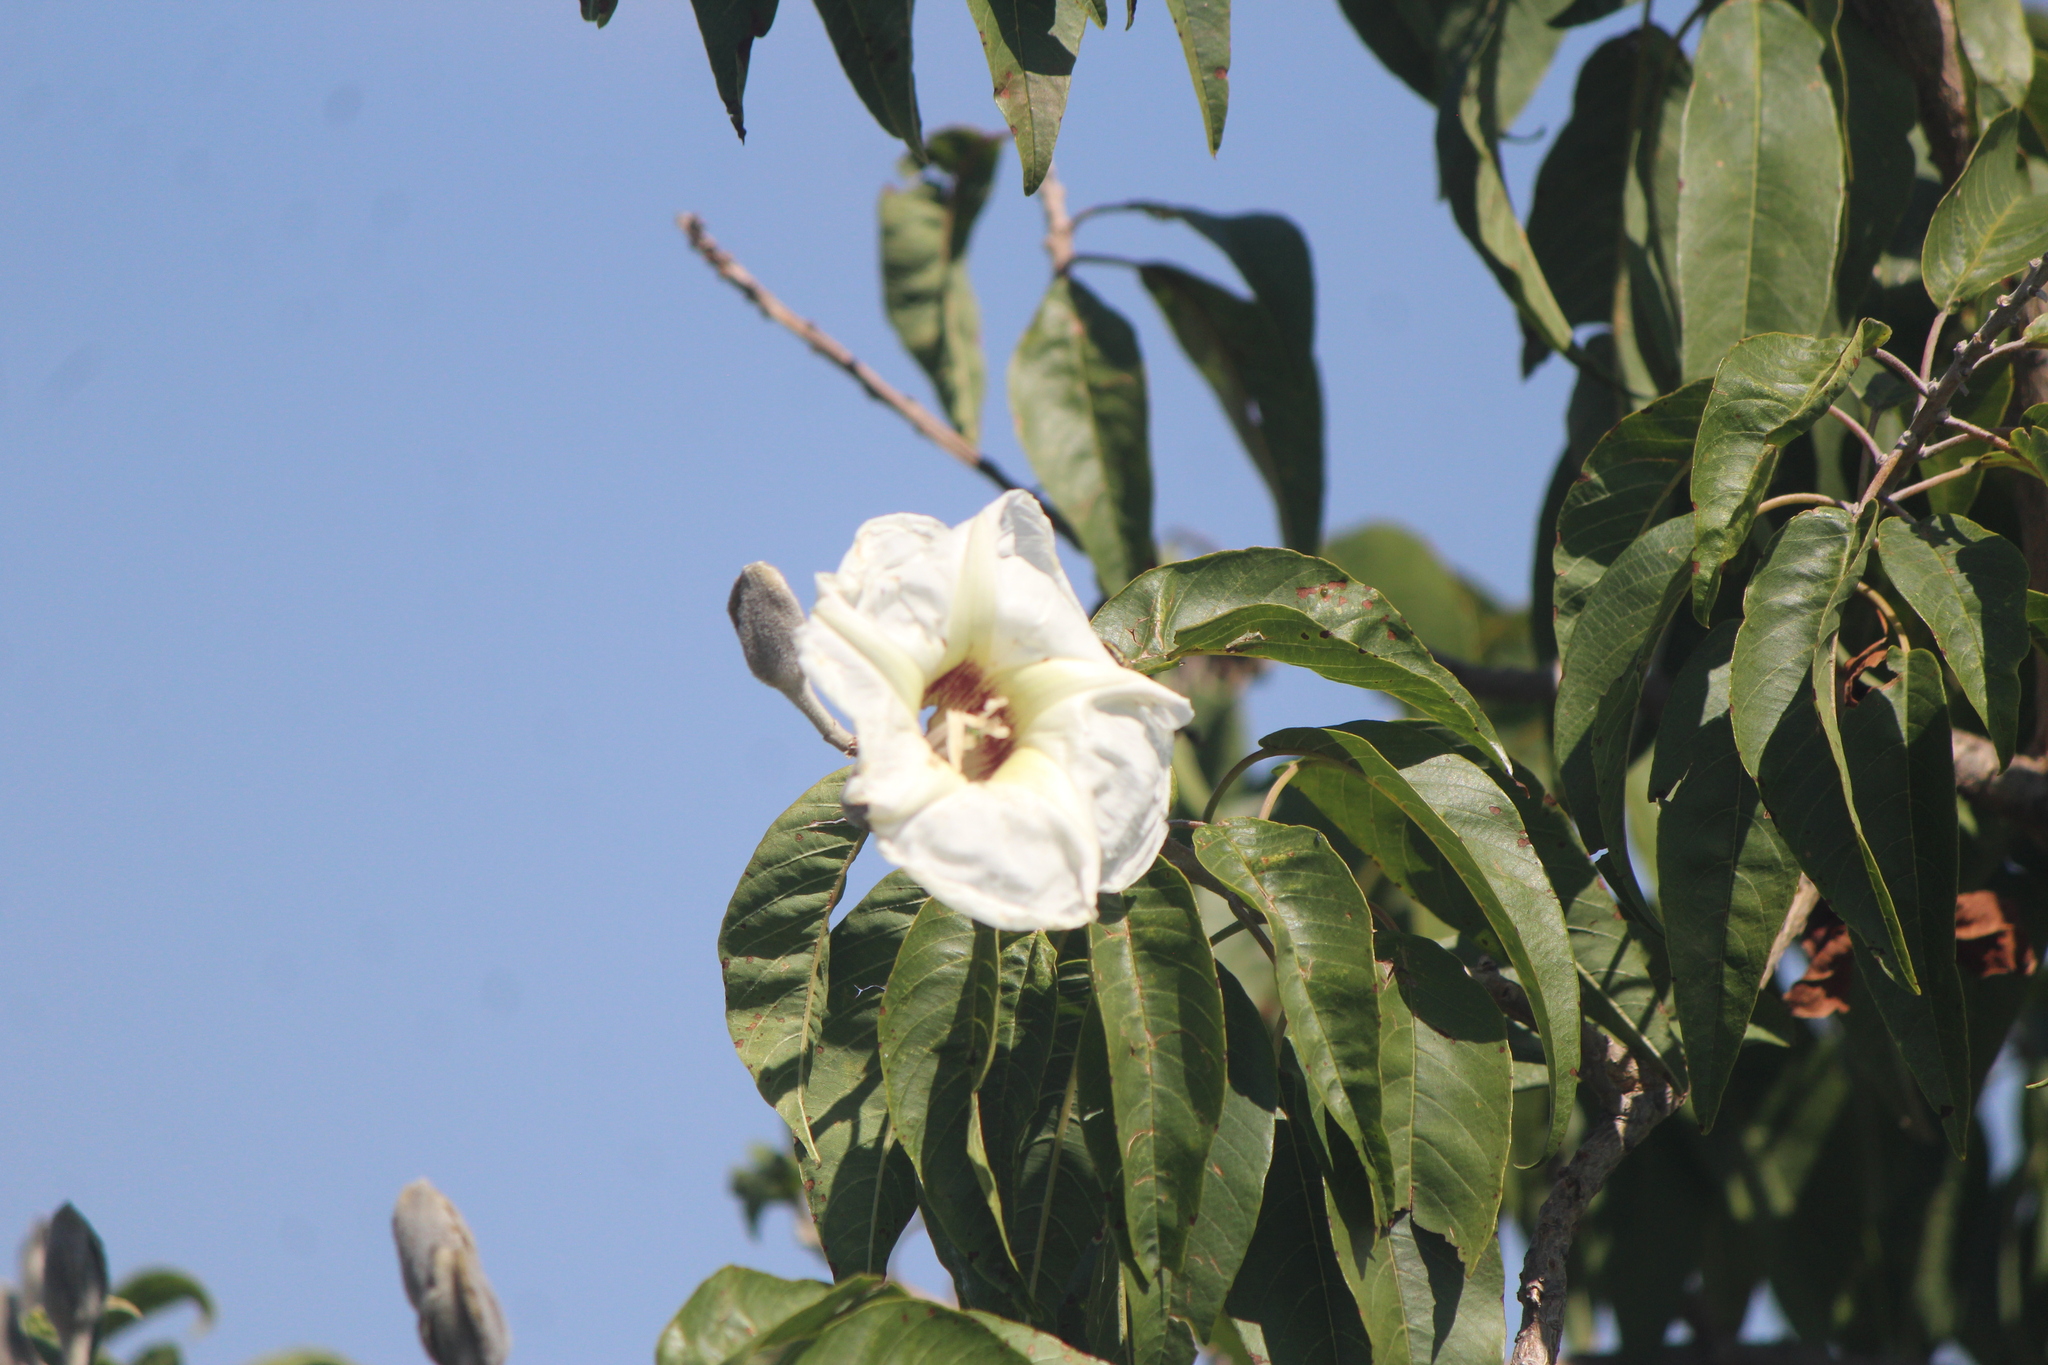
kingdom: Plantae
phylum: Tracheophyta
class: Magnoliopsida
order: Solanales
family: Convolvulaceae
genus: Ipomoea
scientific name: Ipomoea murucoides
